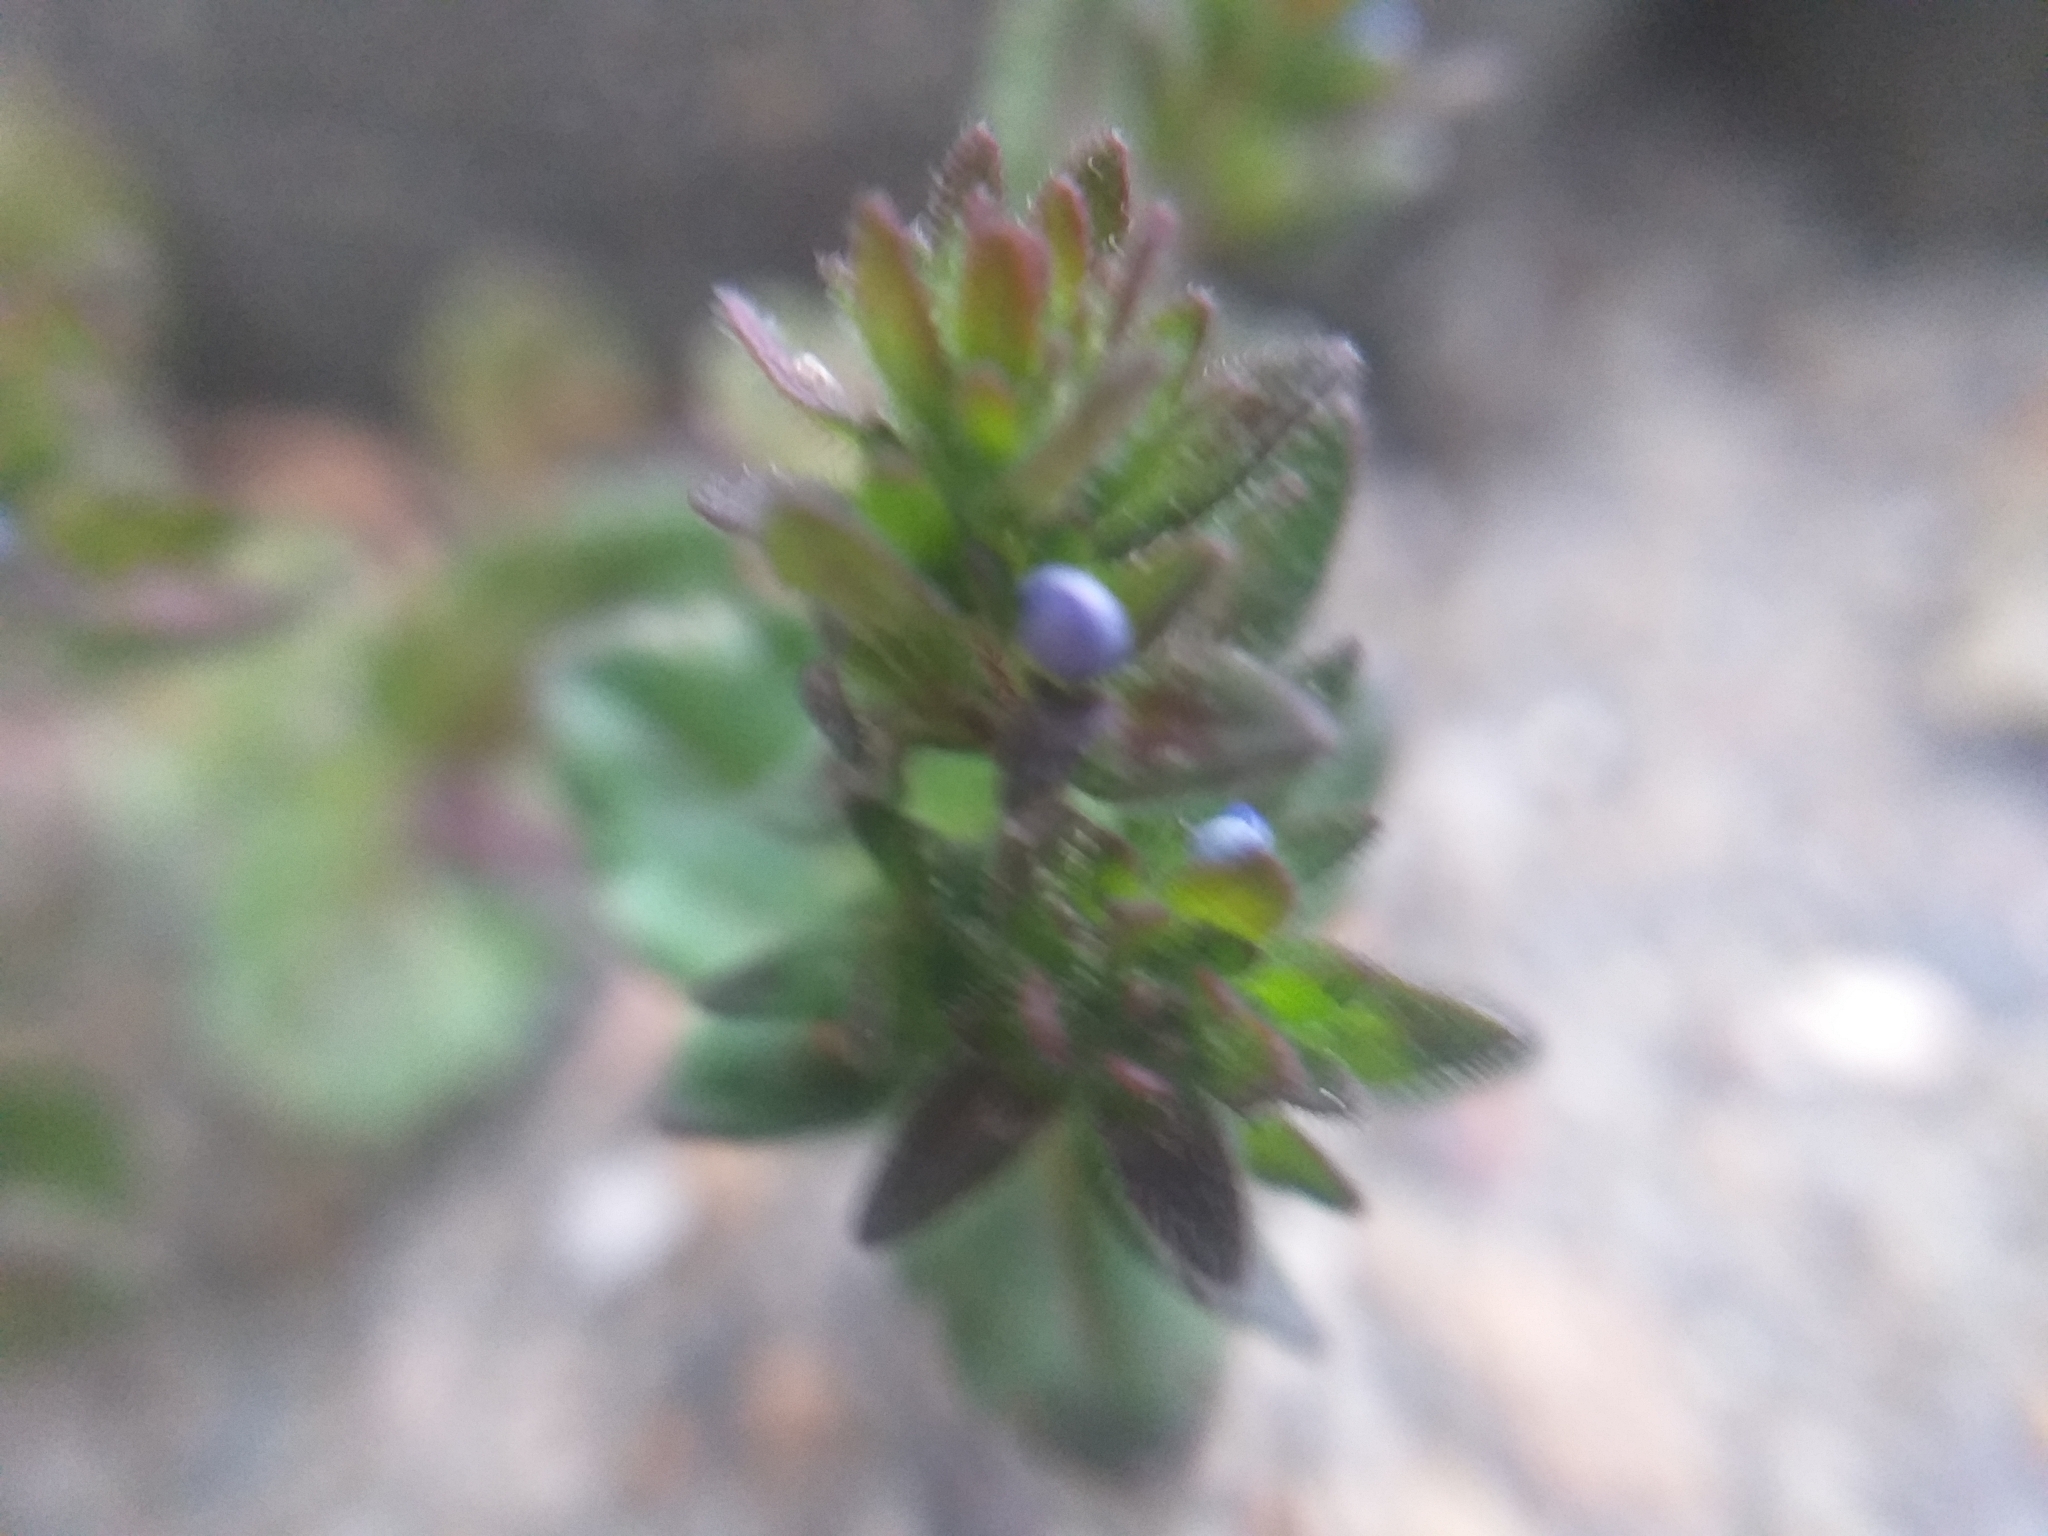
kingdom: Plantae
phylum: Tracheophyta
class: Magnoliopsida
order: Lamiales
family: Plantaginaceae
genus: Veronica
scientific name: Veronica arvensis
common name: Corn speedwell
